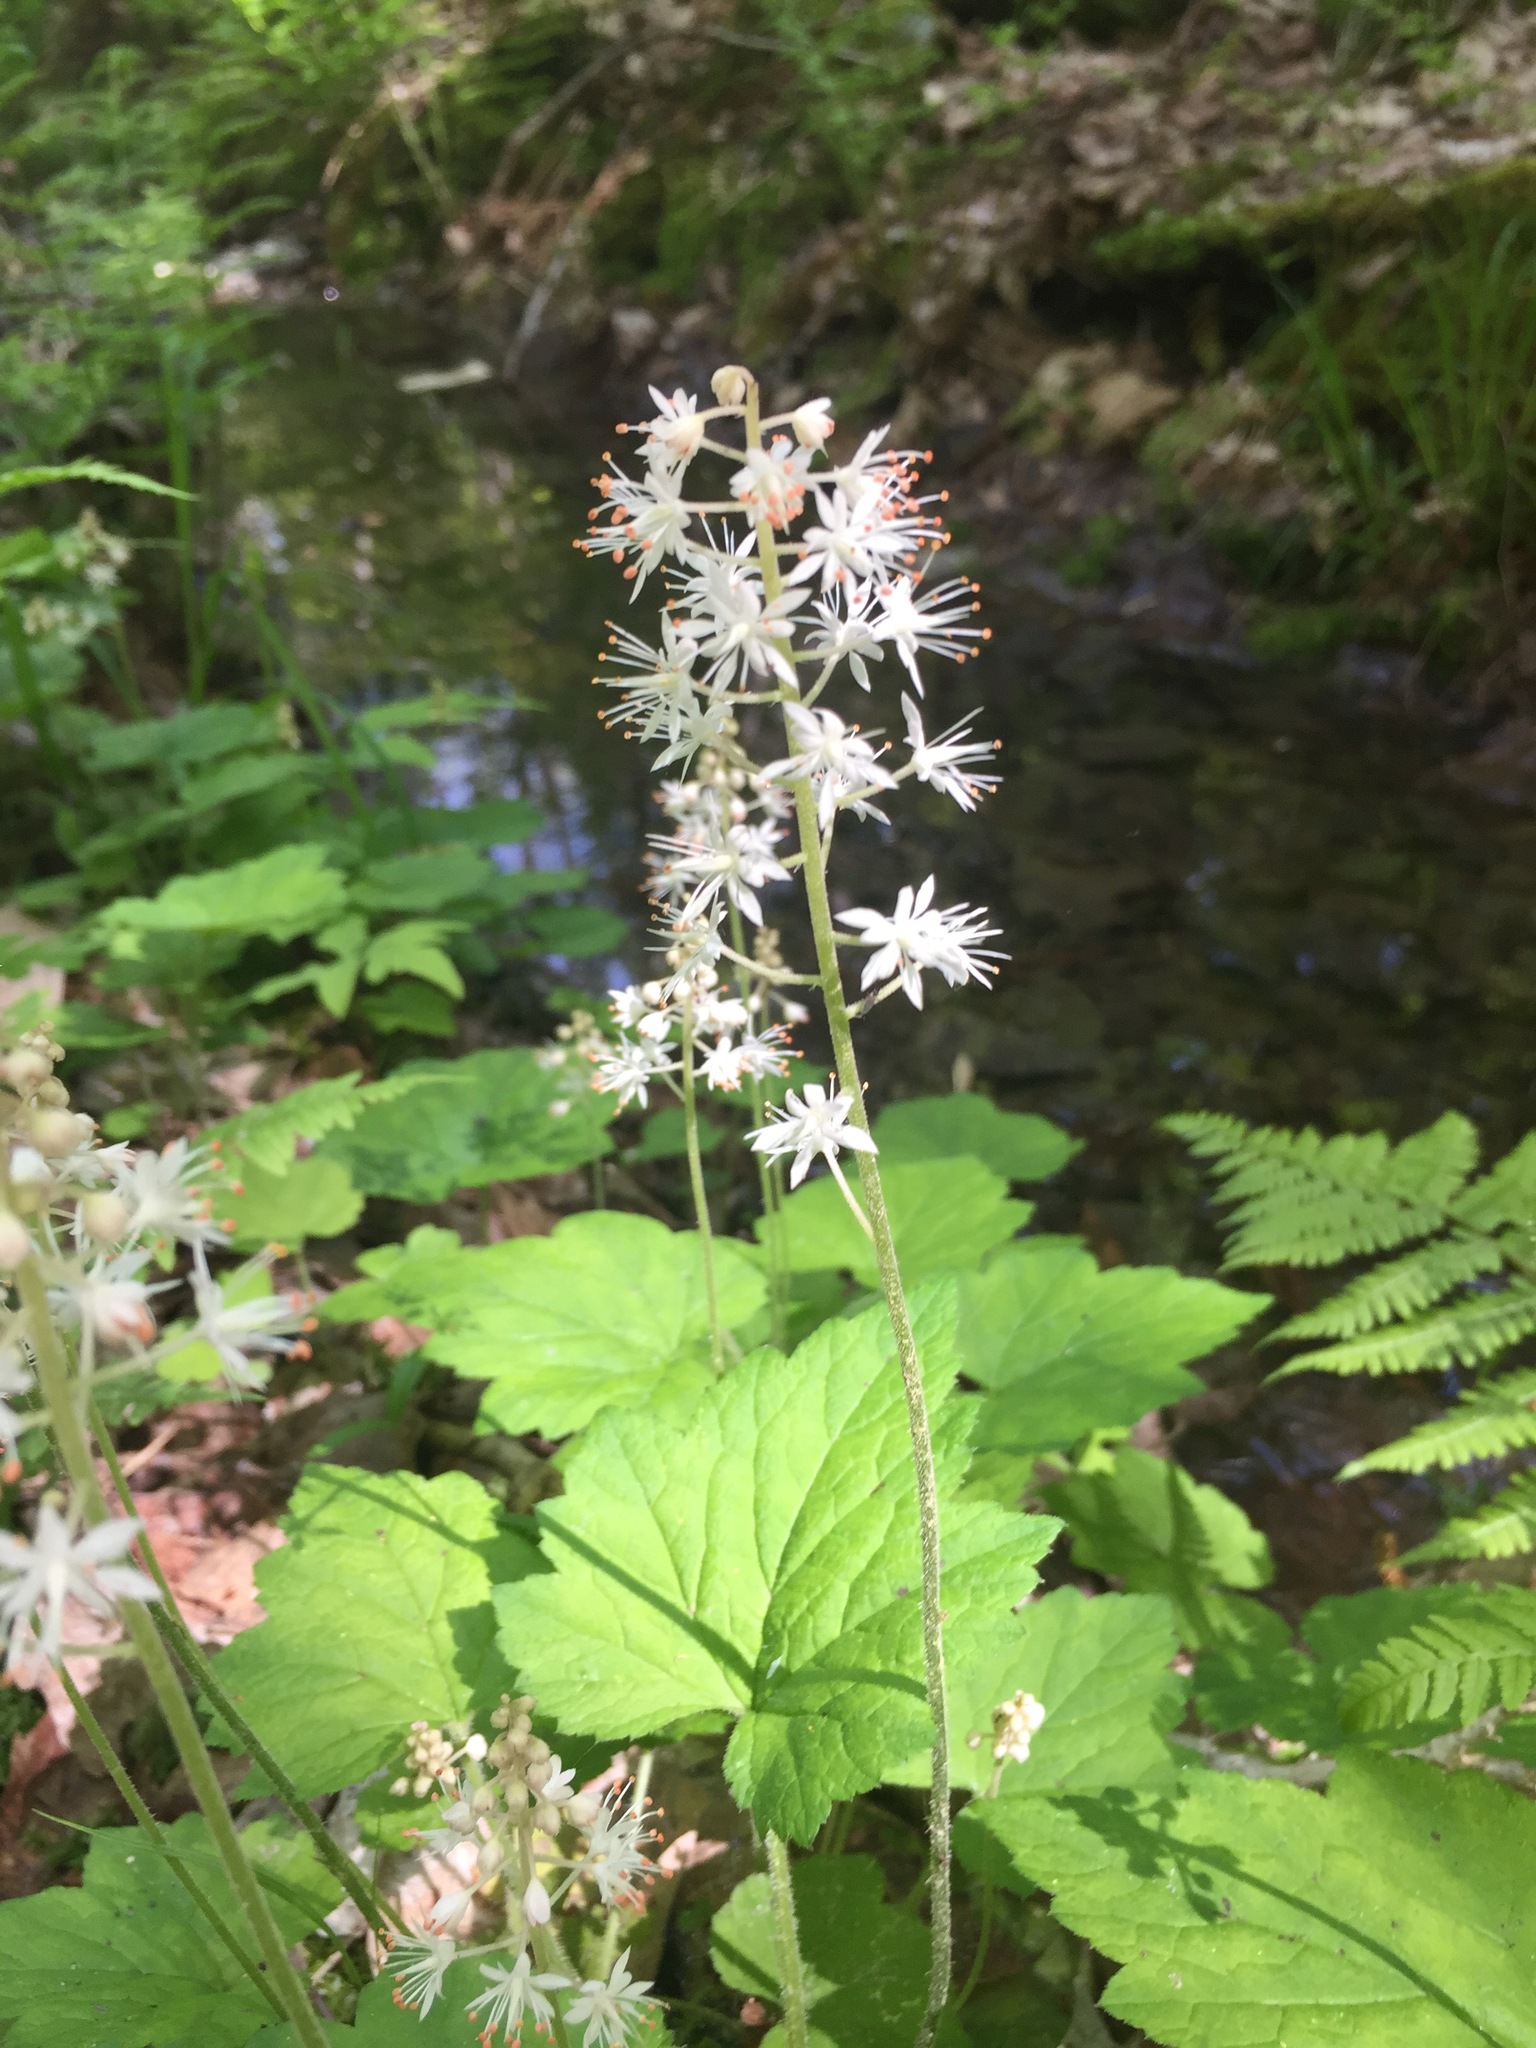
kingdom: Plantae
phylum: Tracheophyta
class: Magnoliopsida
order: Saxifragales
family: Saxifragaceae
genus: Tiarella
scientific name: Tiarella stolonifera
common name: Stoloniferous foamflower
